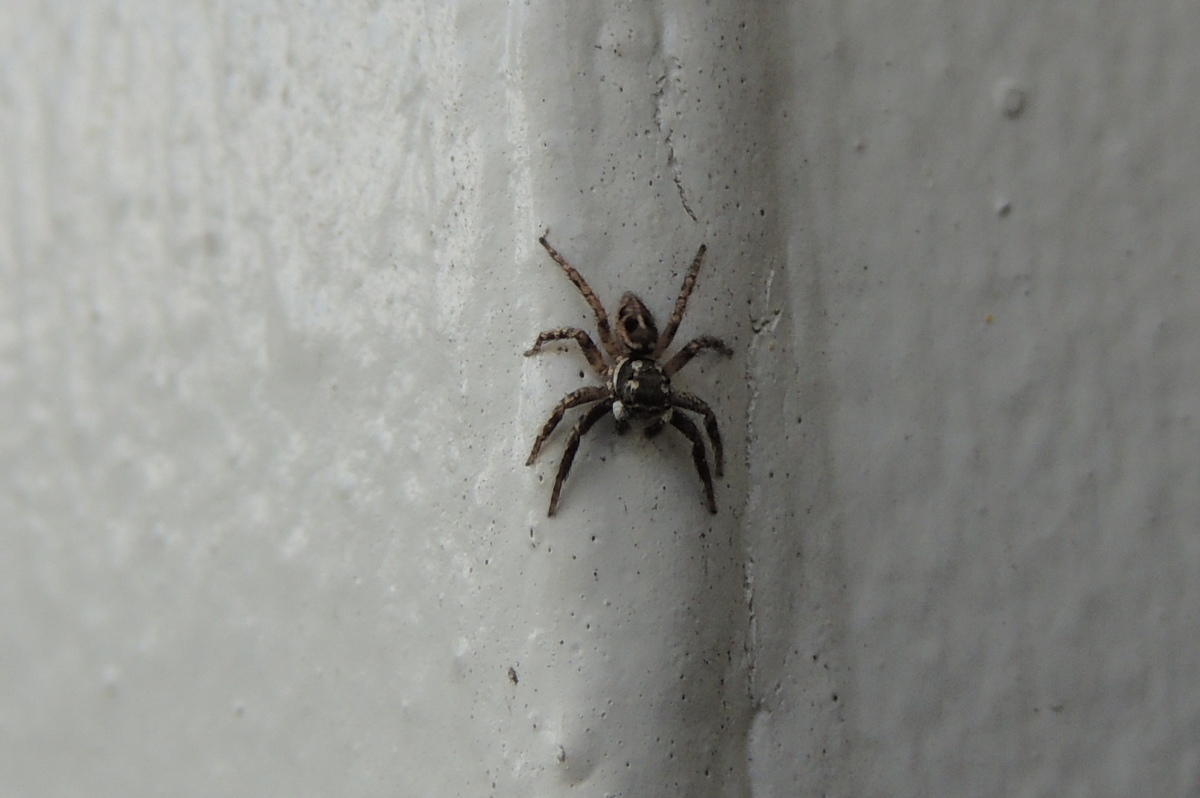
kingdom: Animalia
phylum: Arthropoda
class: Arachnida
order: Araneae
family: Salticidae
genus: Anasaitis
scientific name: Anasaitis canosa
